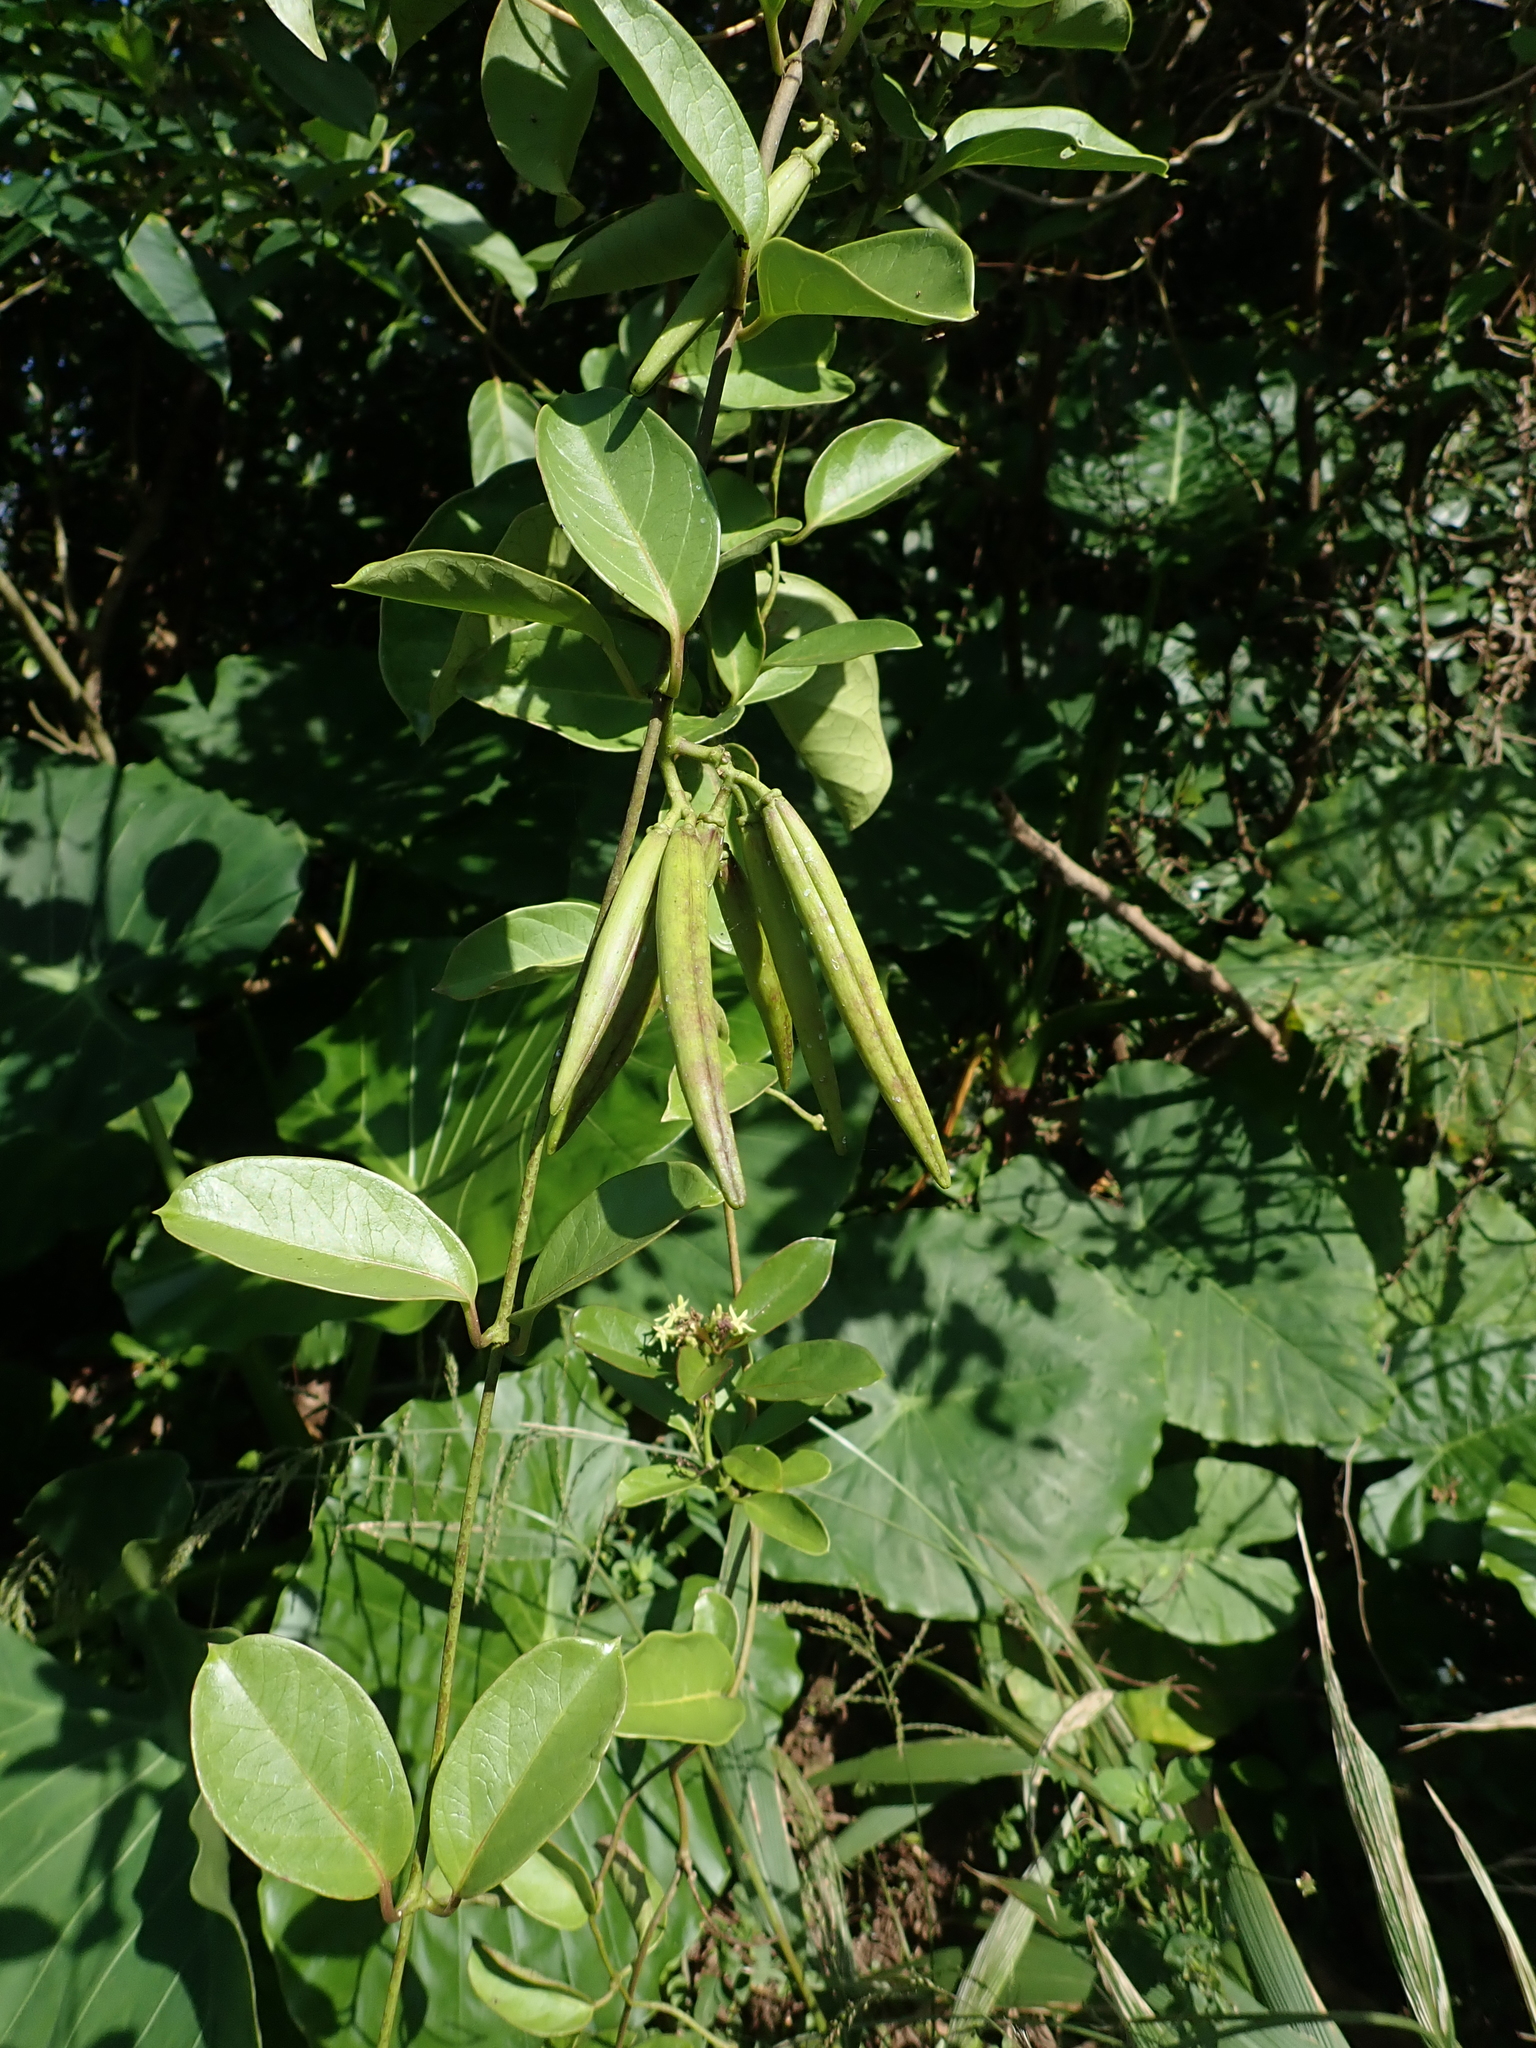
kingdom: Plantae
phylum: Tracheophyta
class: Magnoliopsida
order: Gentianales
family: Apocynaceae
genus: Parsonsia
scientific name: Parsonsia alboflavescens
